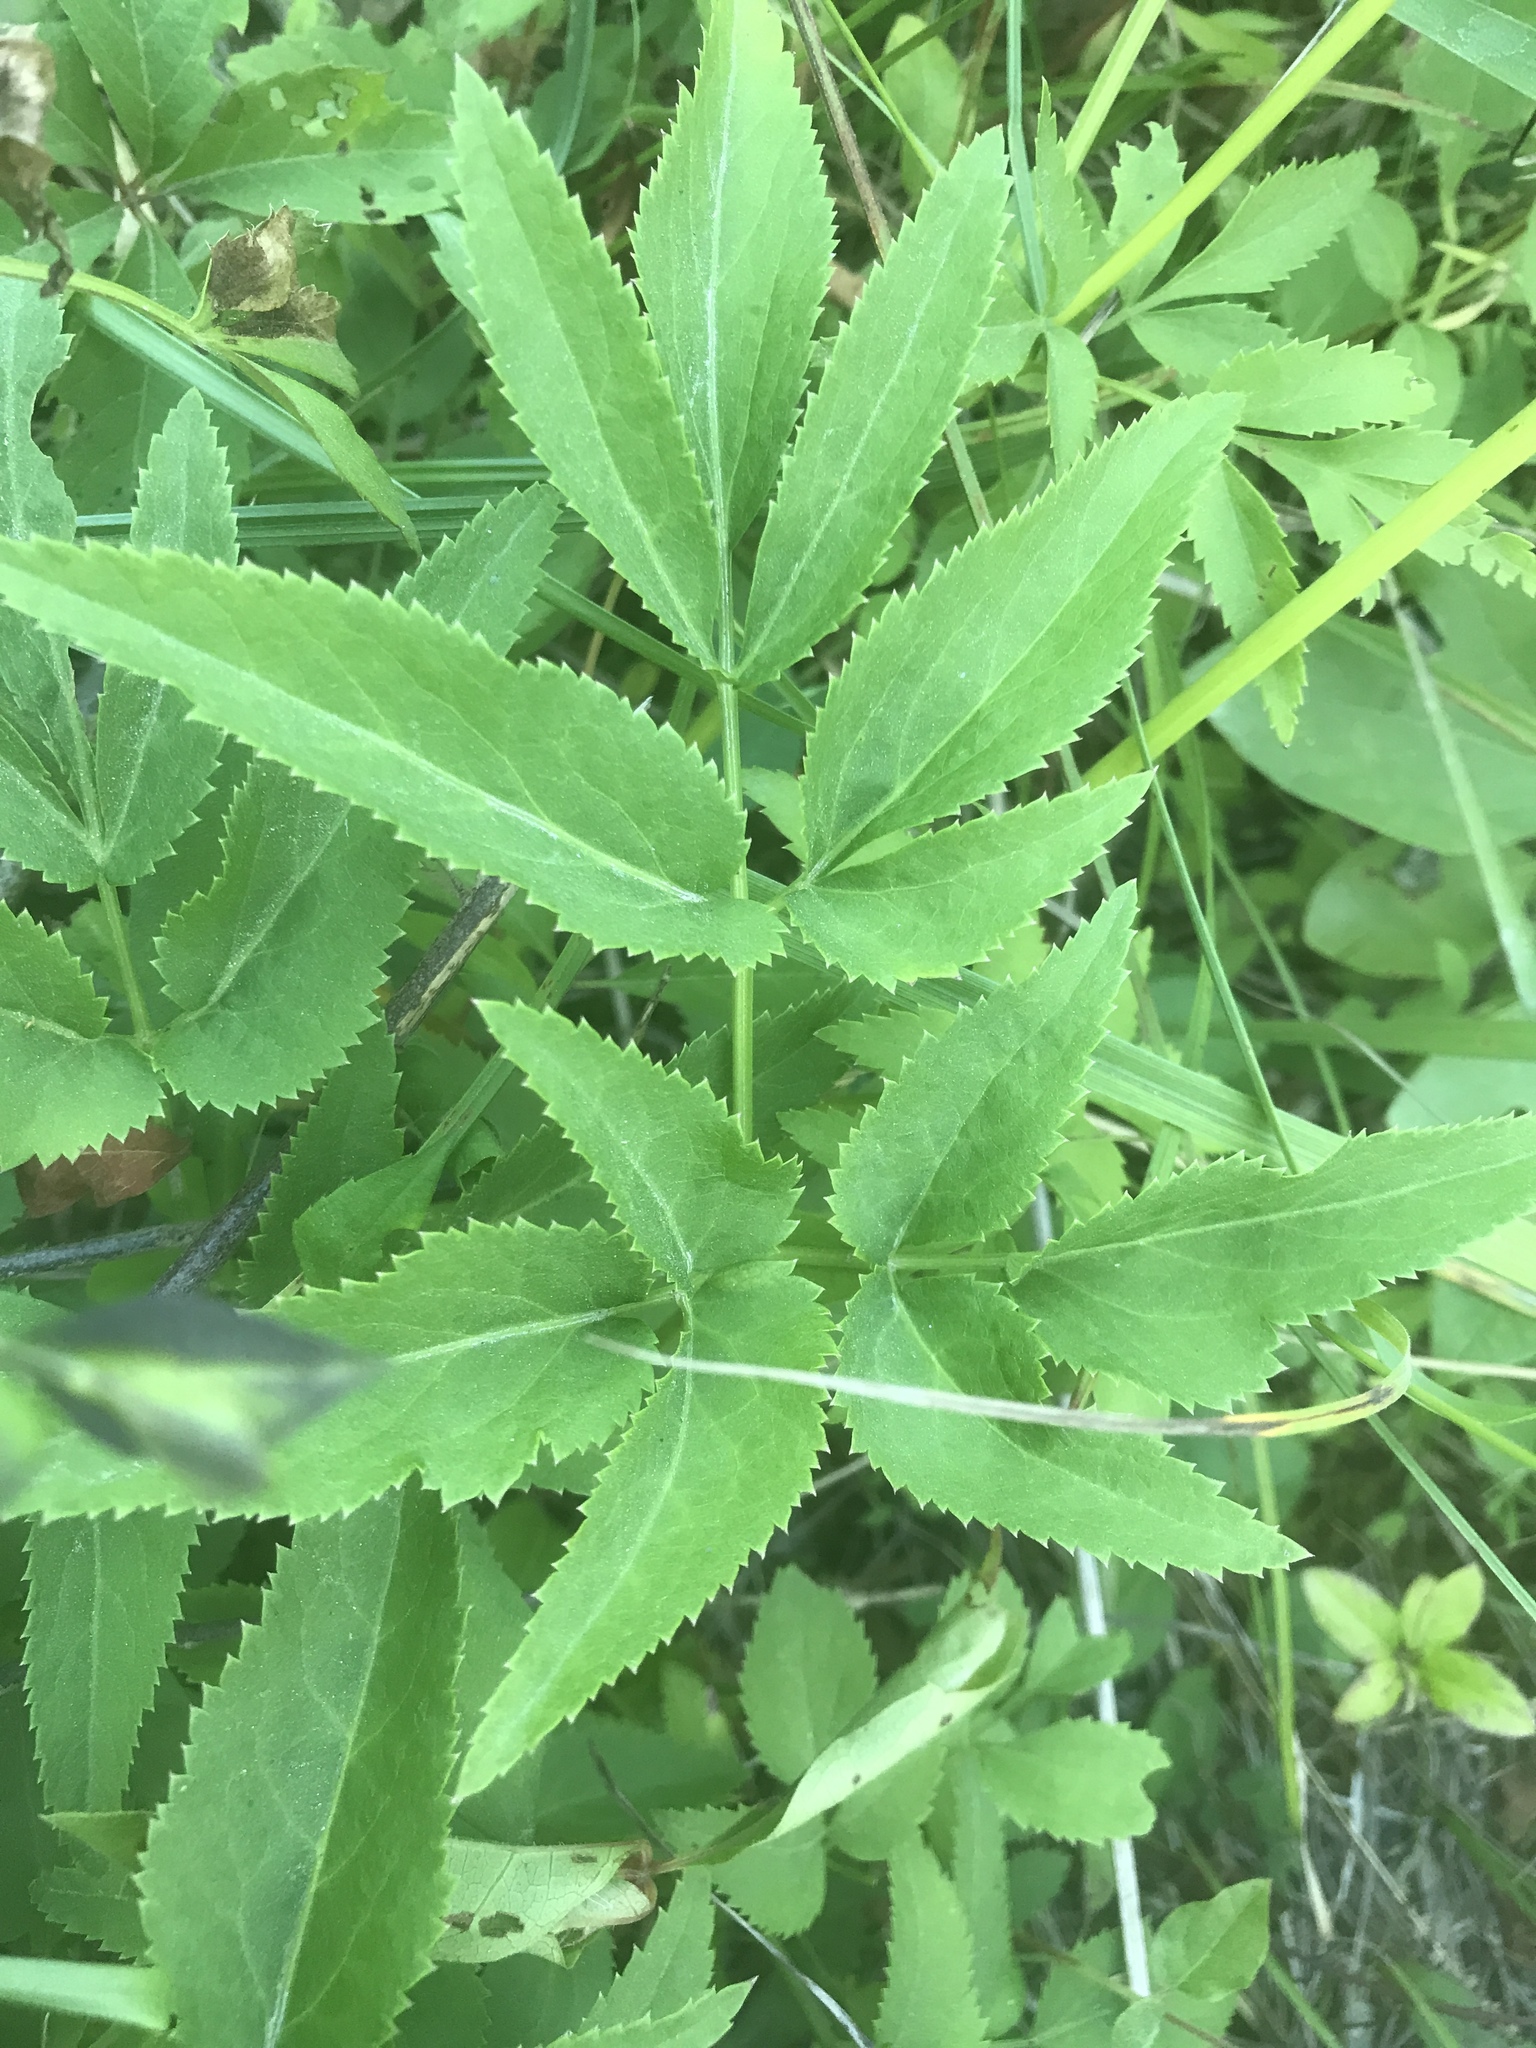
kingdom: Plantae
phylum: Tracheophyta
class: Magnoliopsida
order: Apiales
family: Apiaceae
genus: Zizia
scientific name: Zizia aurea
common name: Golden alexanders
